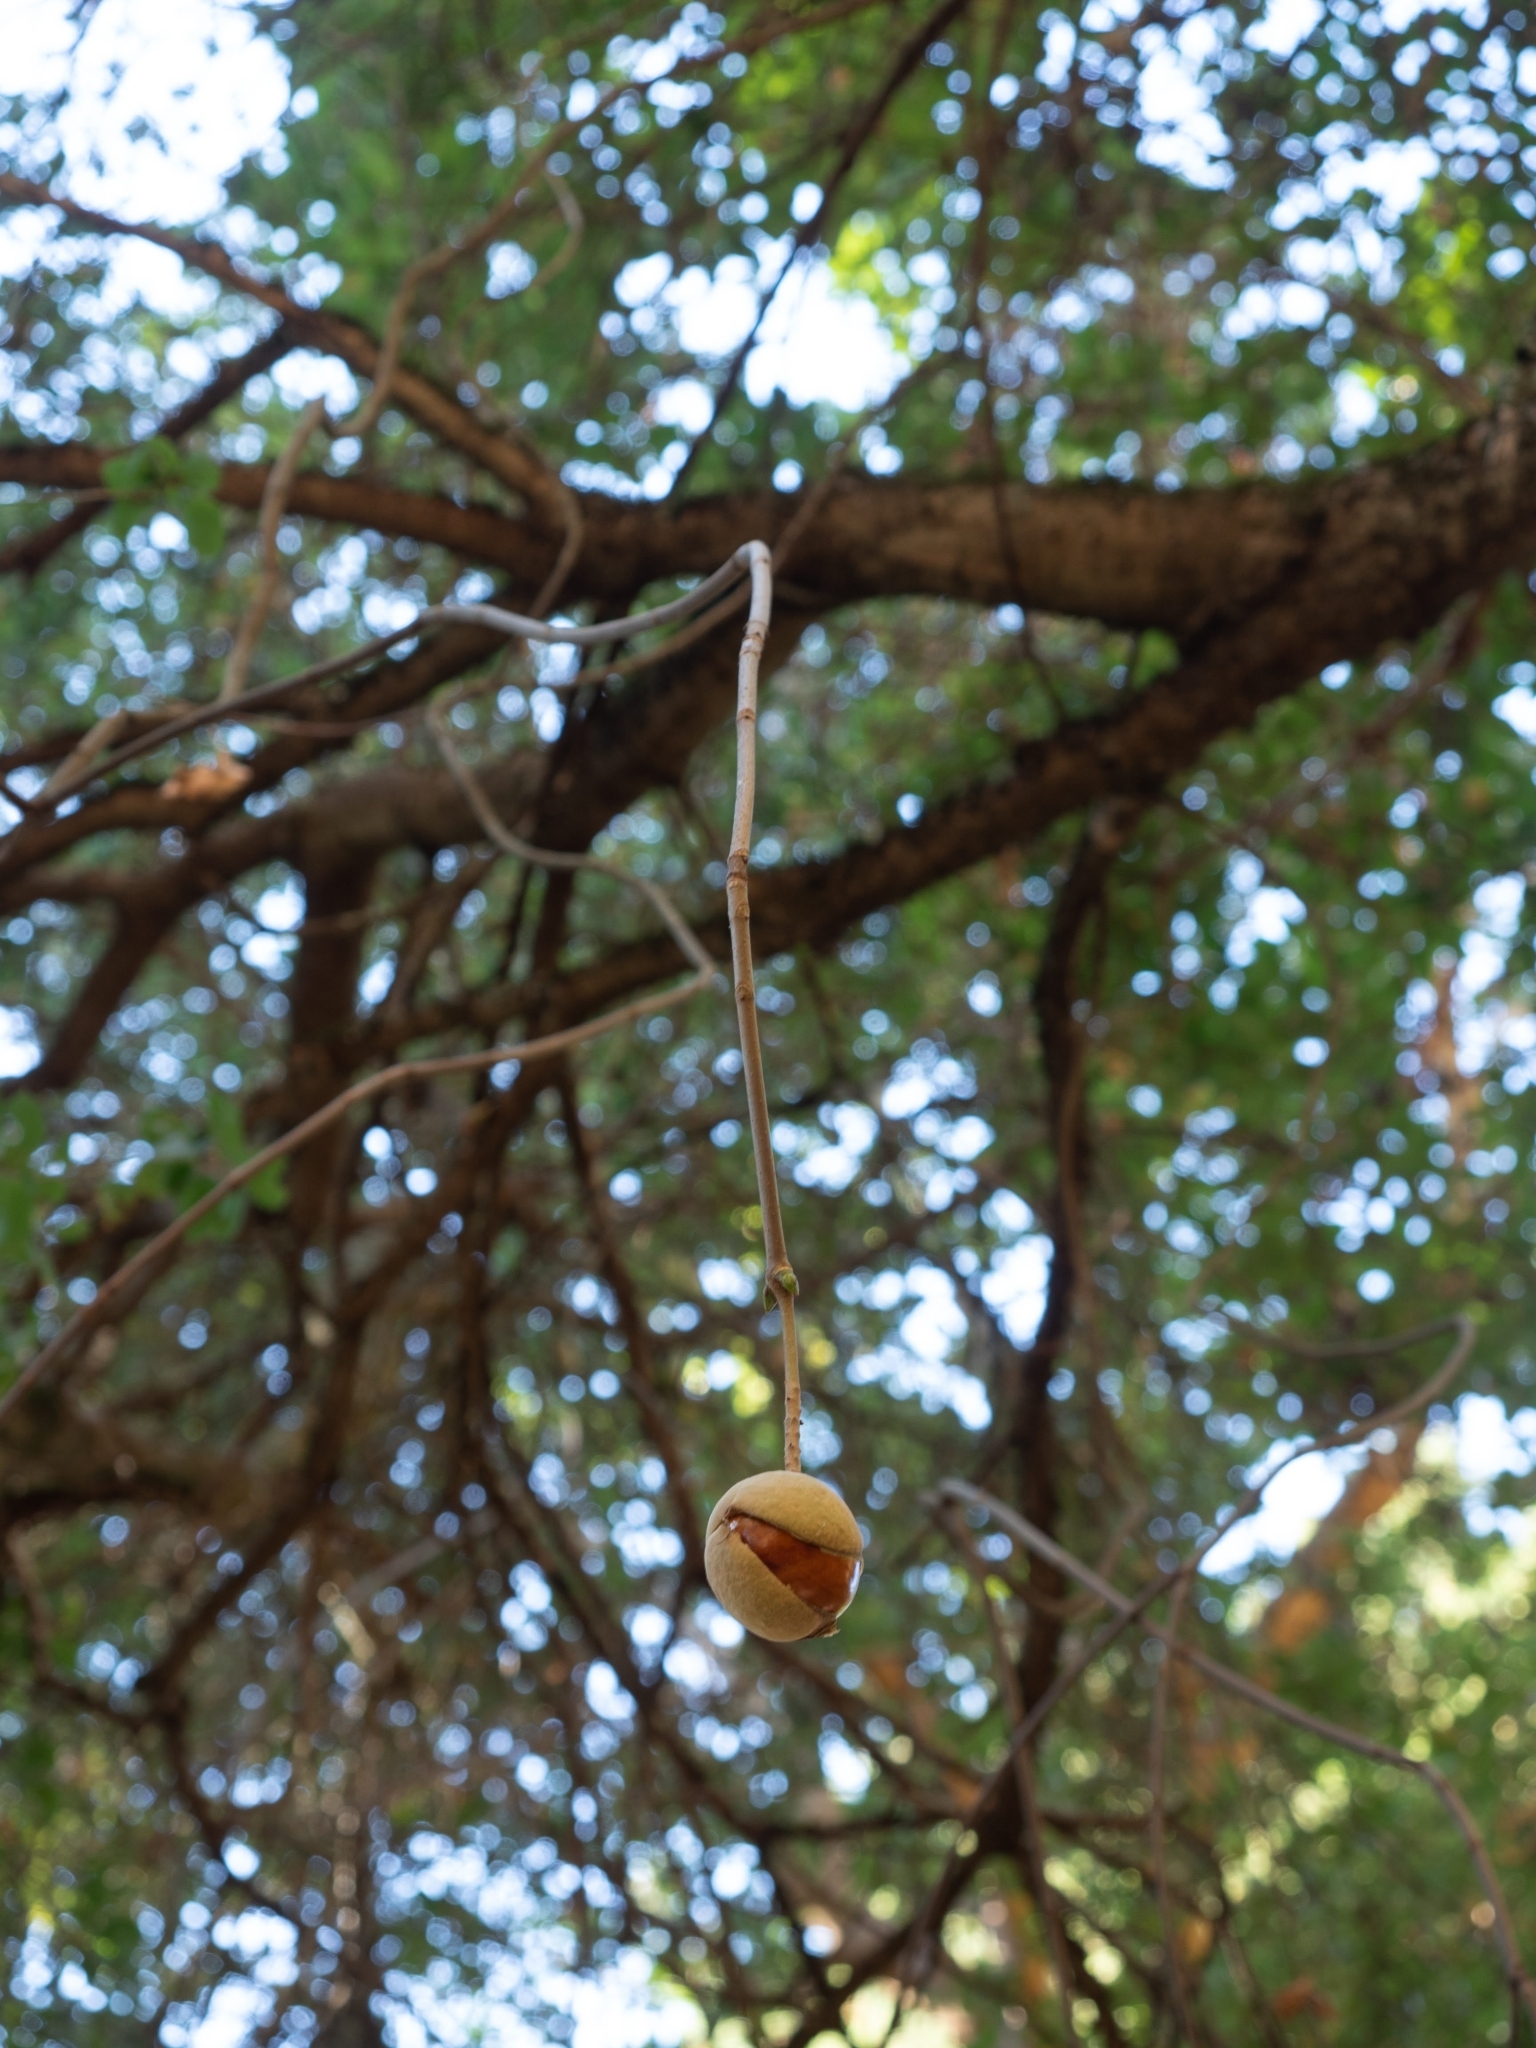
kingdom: Plantae
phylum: Tracheophyta
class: Magnoliopsida
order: Sapindales
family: Sapindaceae
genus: Aesculus
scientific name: Aesculus californica
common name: California buckeye
